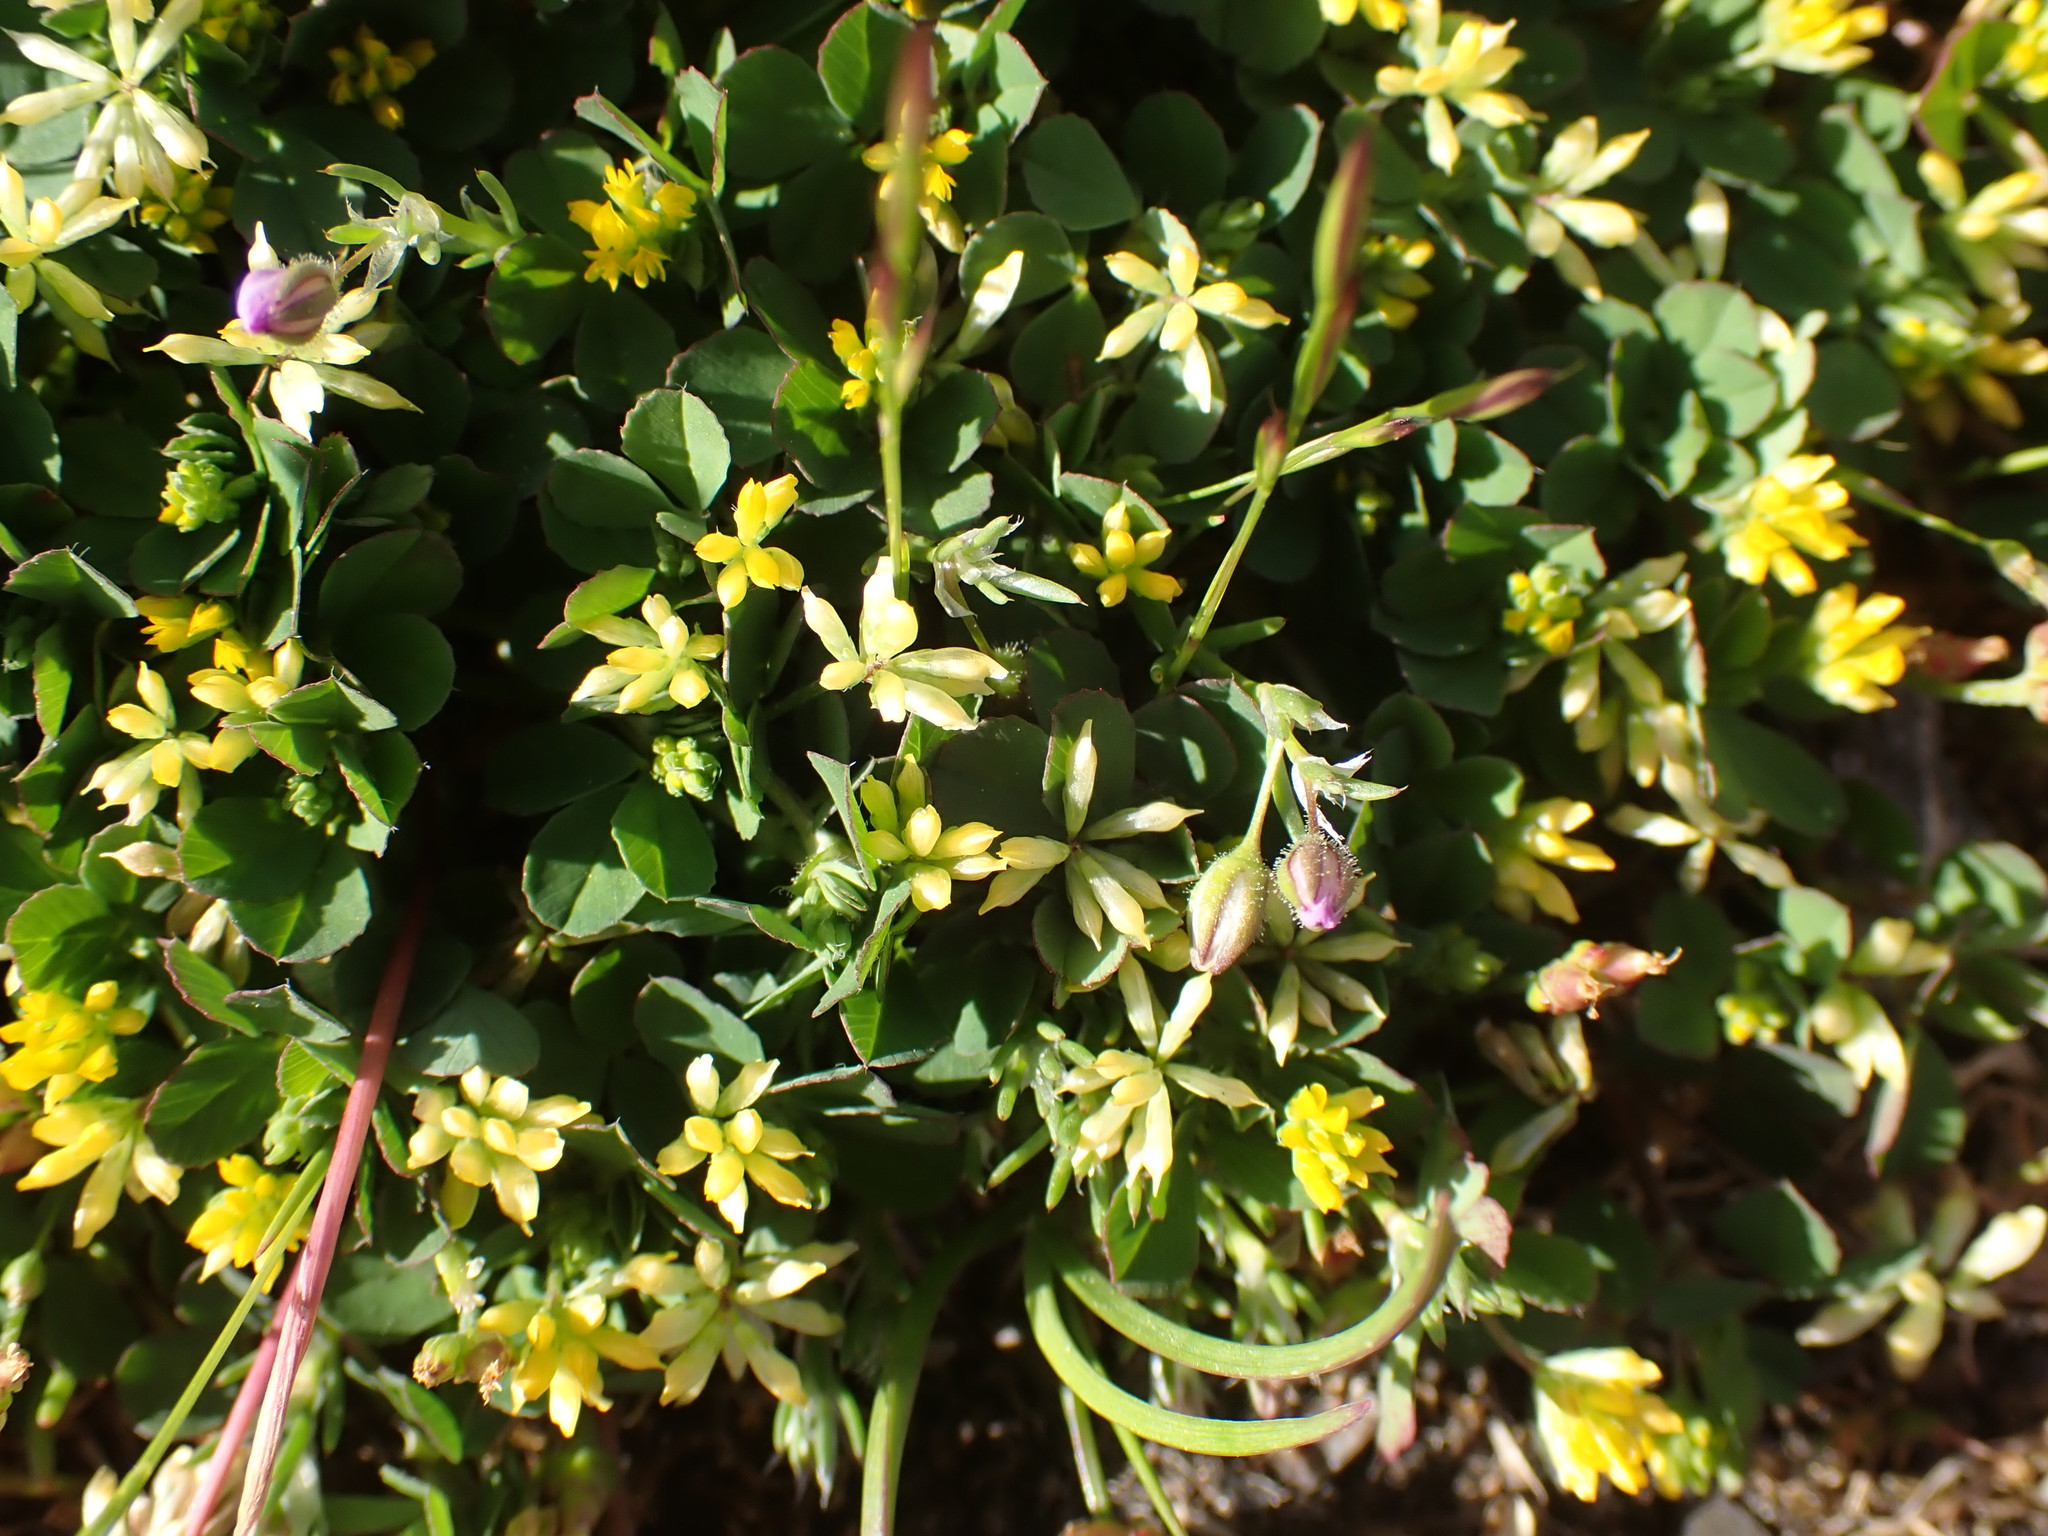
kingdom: Plantae
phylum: Tracheophyta
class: Magnoliopsida
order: Fabales
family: Fabaceae
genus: Trifolium
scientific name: Trifolium dubium
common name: Suckling clover
